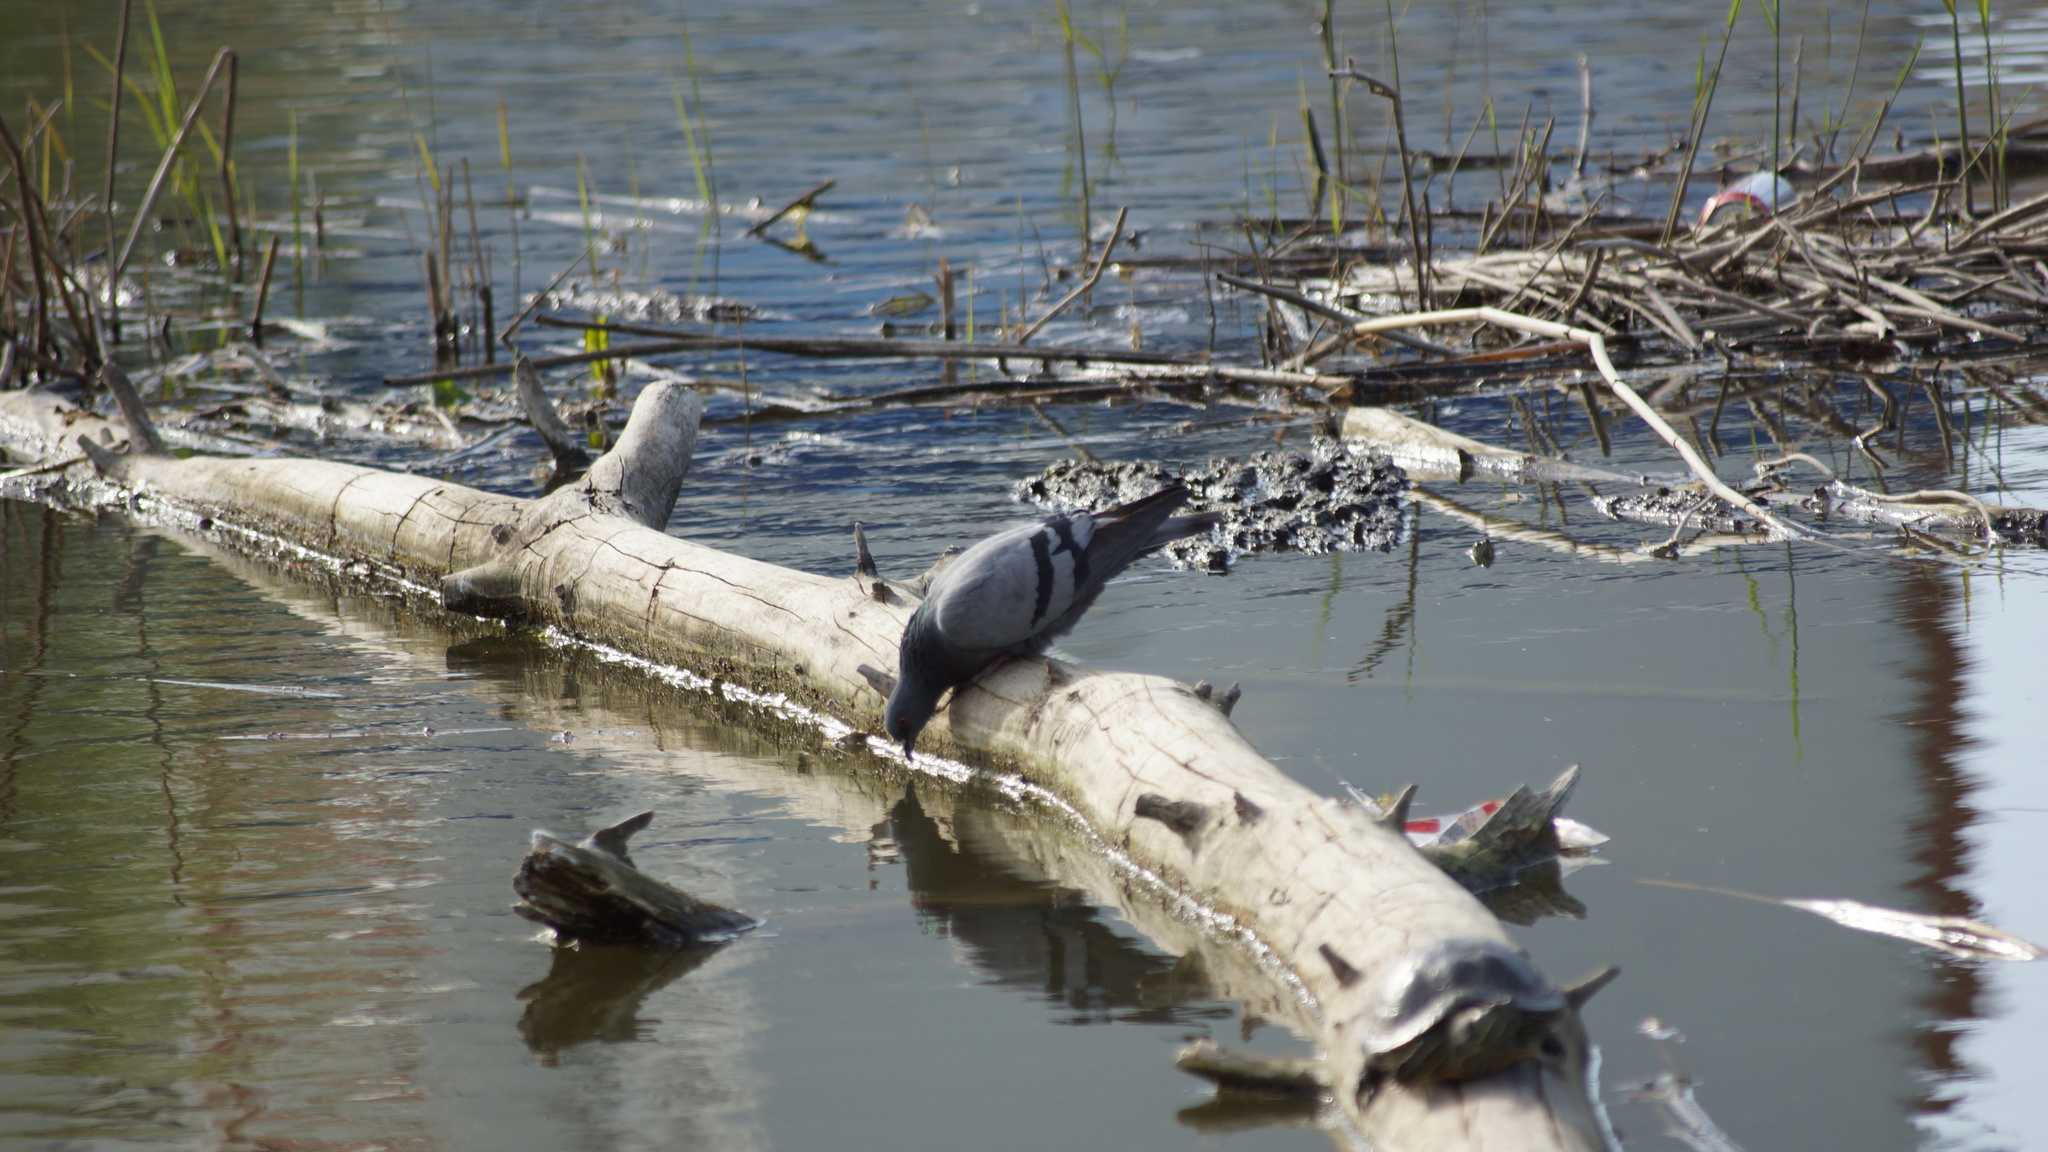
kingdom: Animalia
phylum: Chordata
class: Aves
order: Columbiformes
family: Columbidae
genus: Columba
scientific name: Columba livia
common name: Rock pigeon
